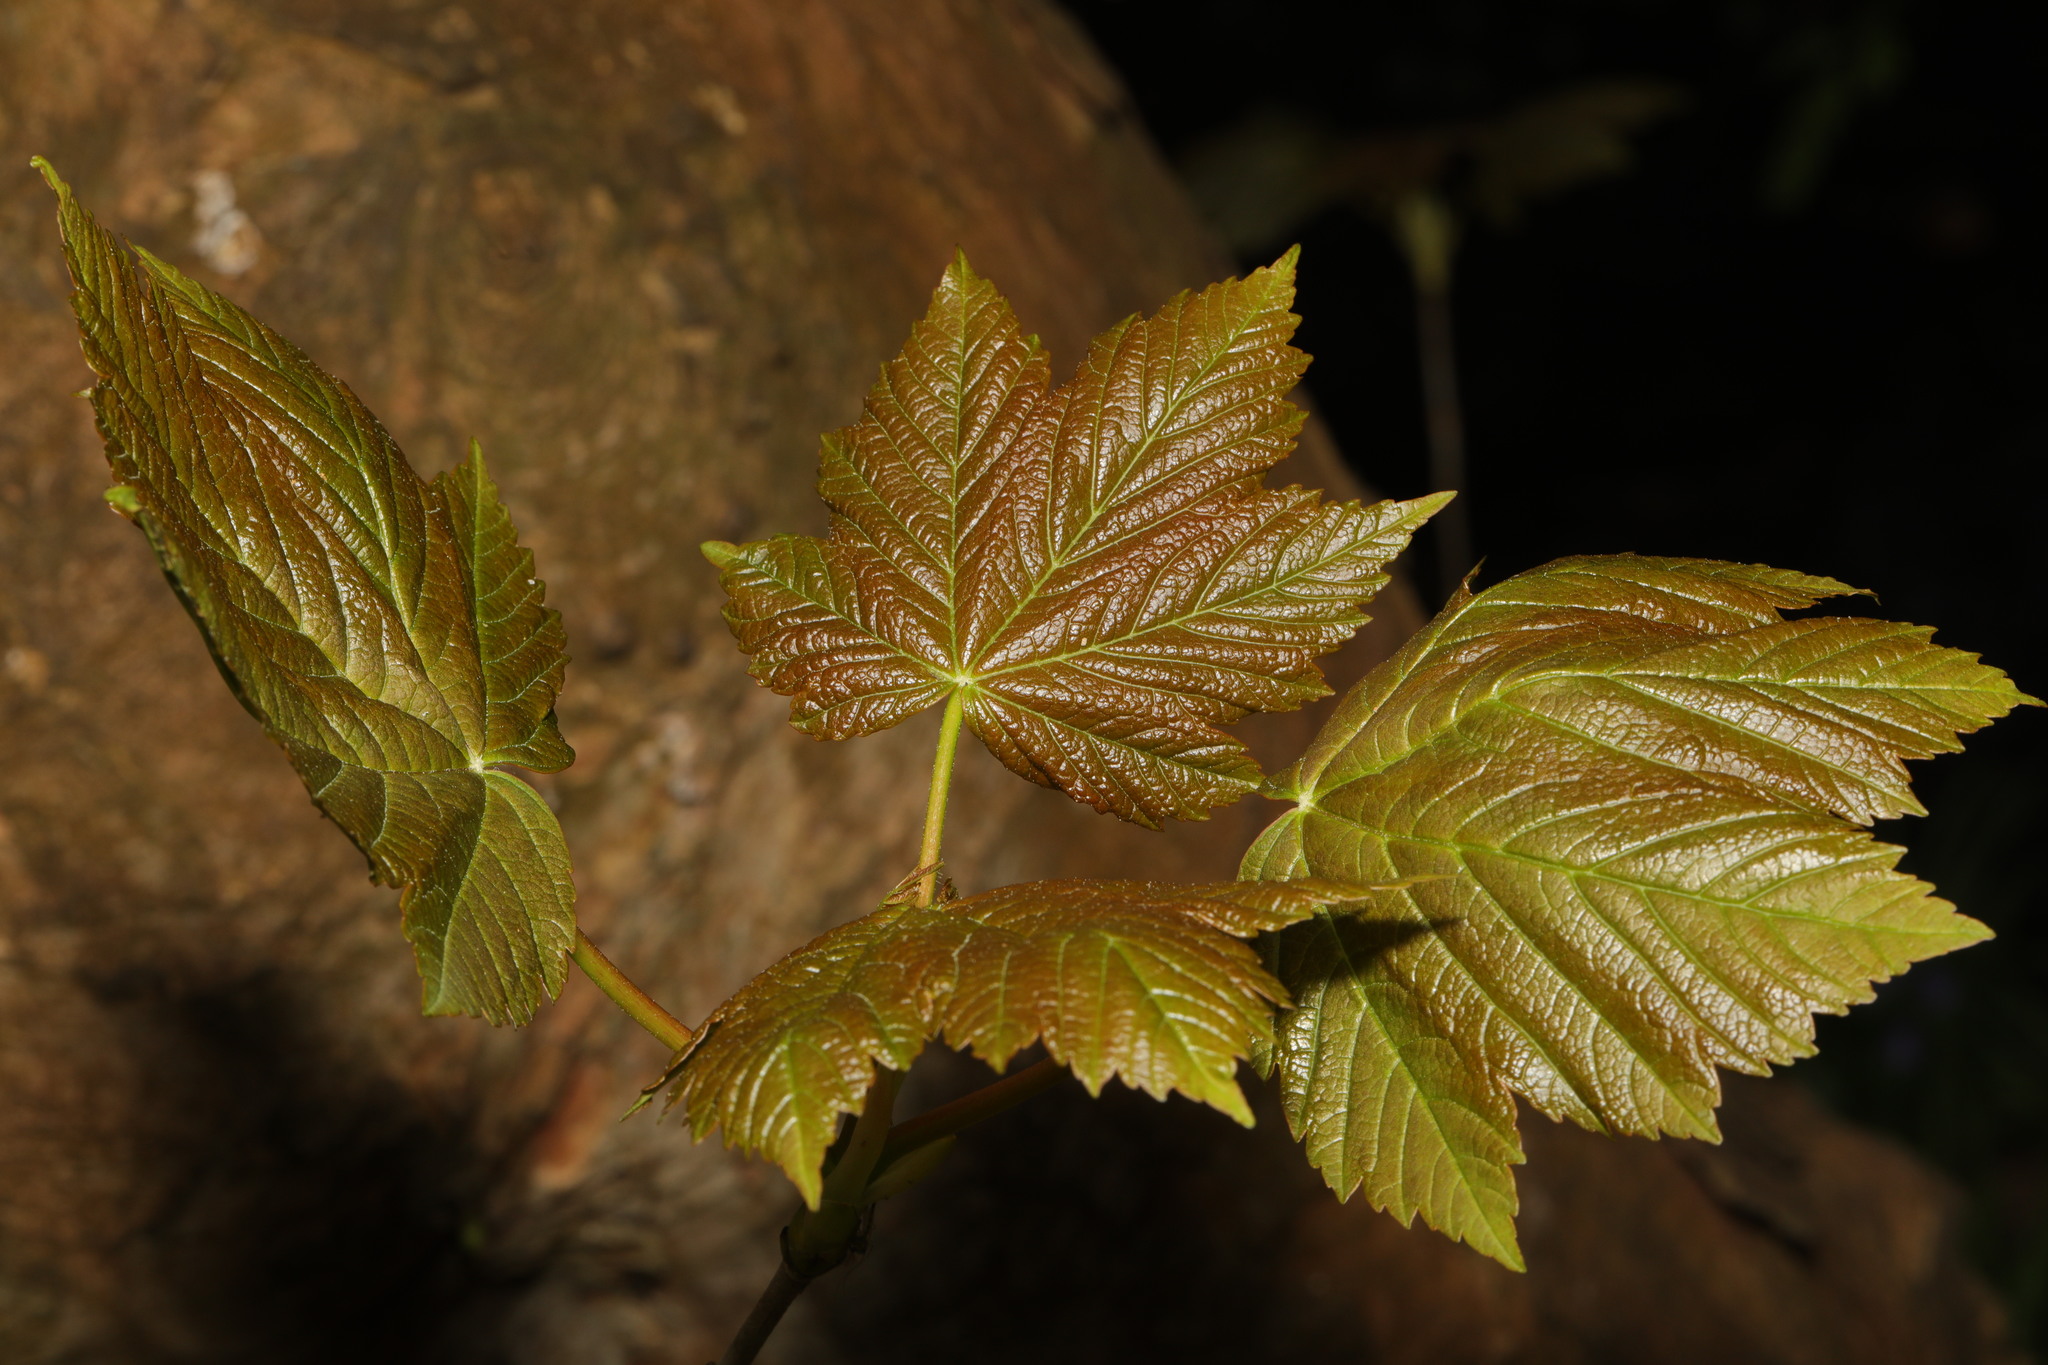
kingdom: Plantae
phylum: Tracheophyta
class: Magnoliopsida
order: Sapindales
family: Sapindaceae
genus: Acer
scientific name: Acer pseudoplatanus
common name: Sycamore
